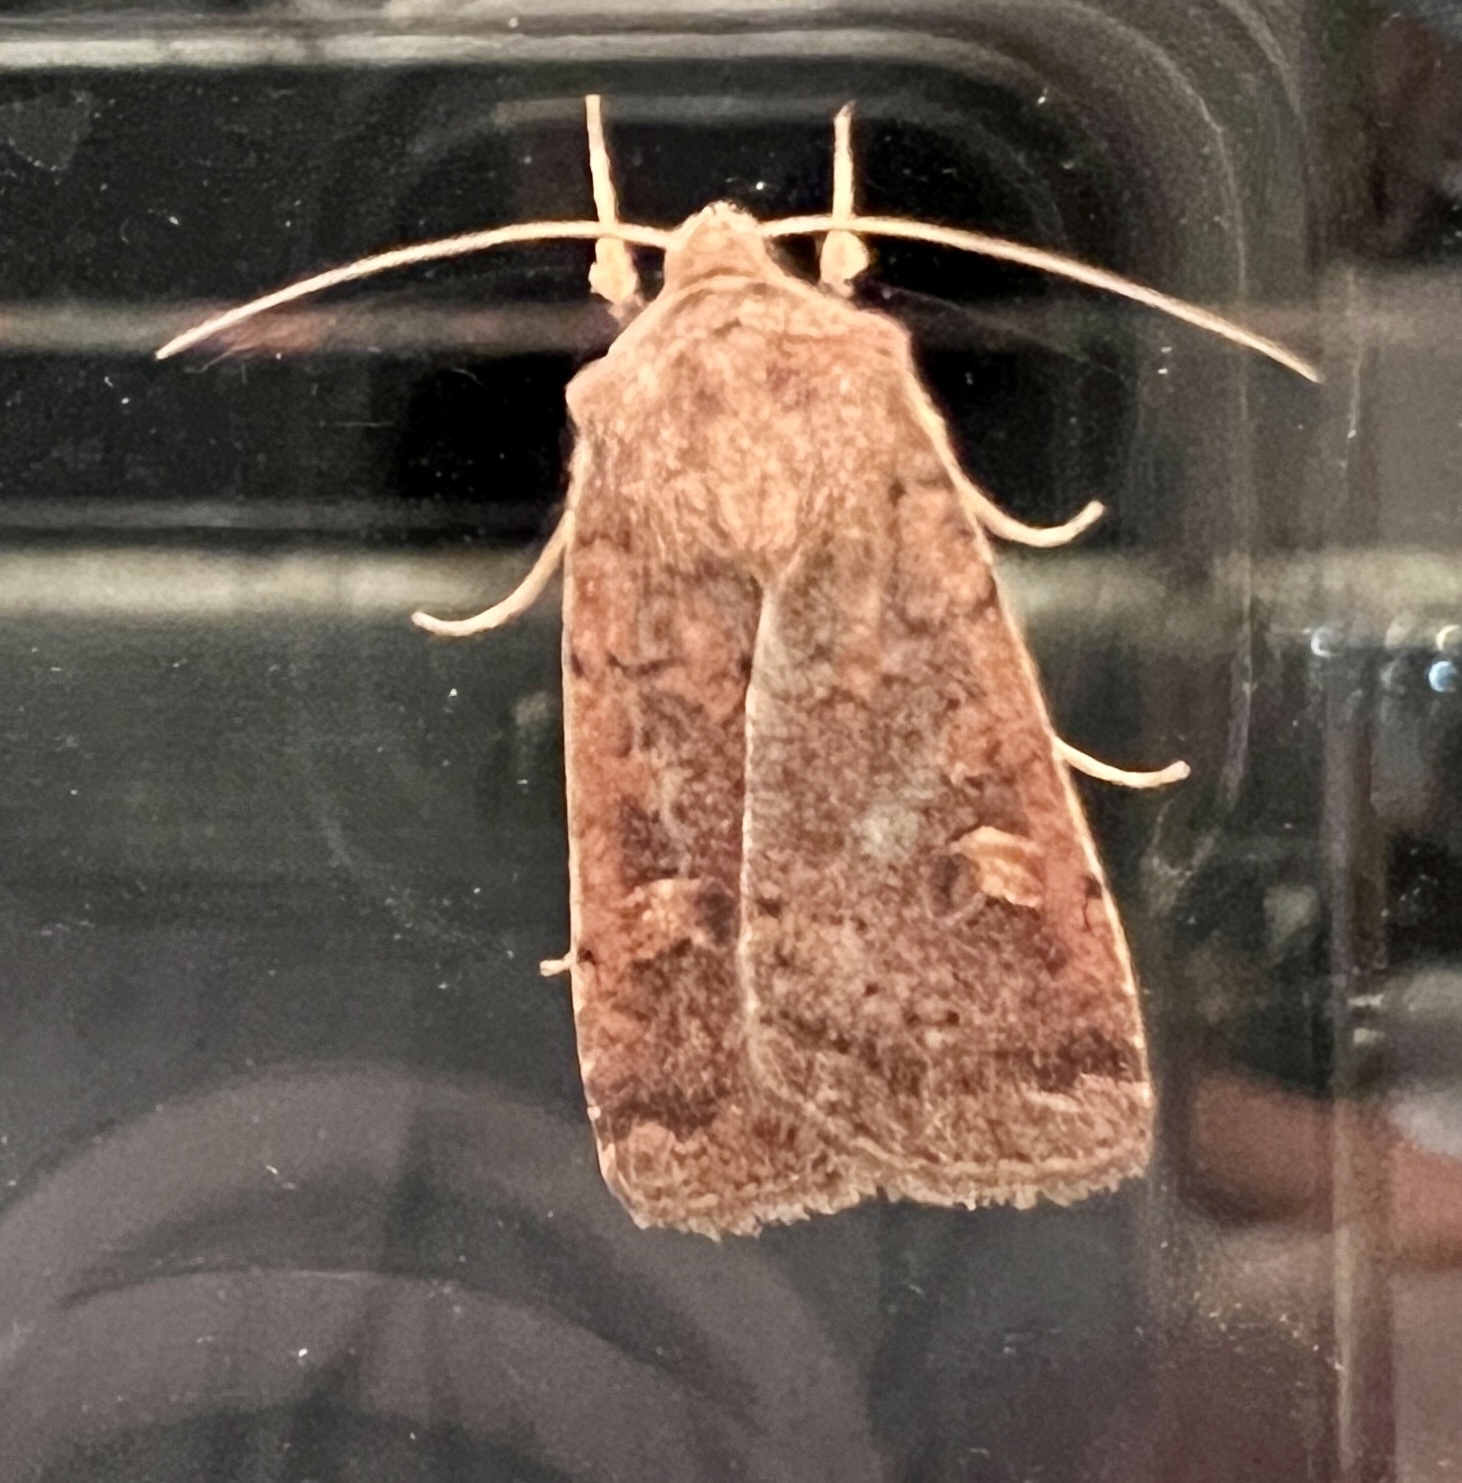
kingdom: Animalia
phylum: Arthropoda
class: Insecta
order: Lepidoptera
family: Noctuidae
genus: Xestia
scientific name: Xestia xanthographa
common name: Square-spot rustic
